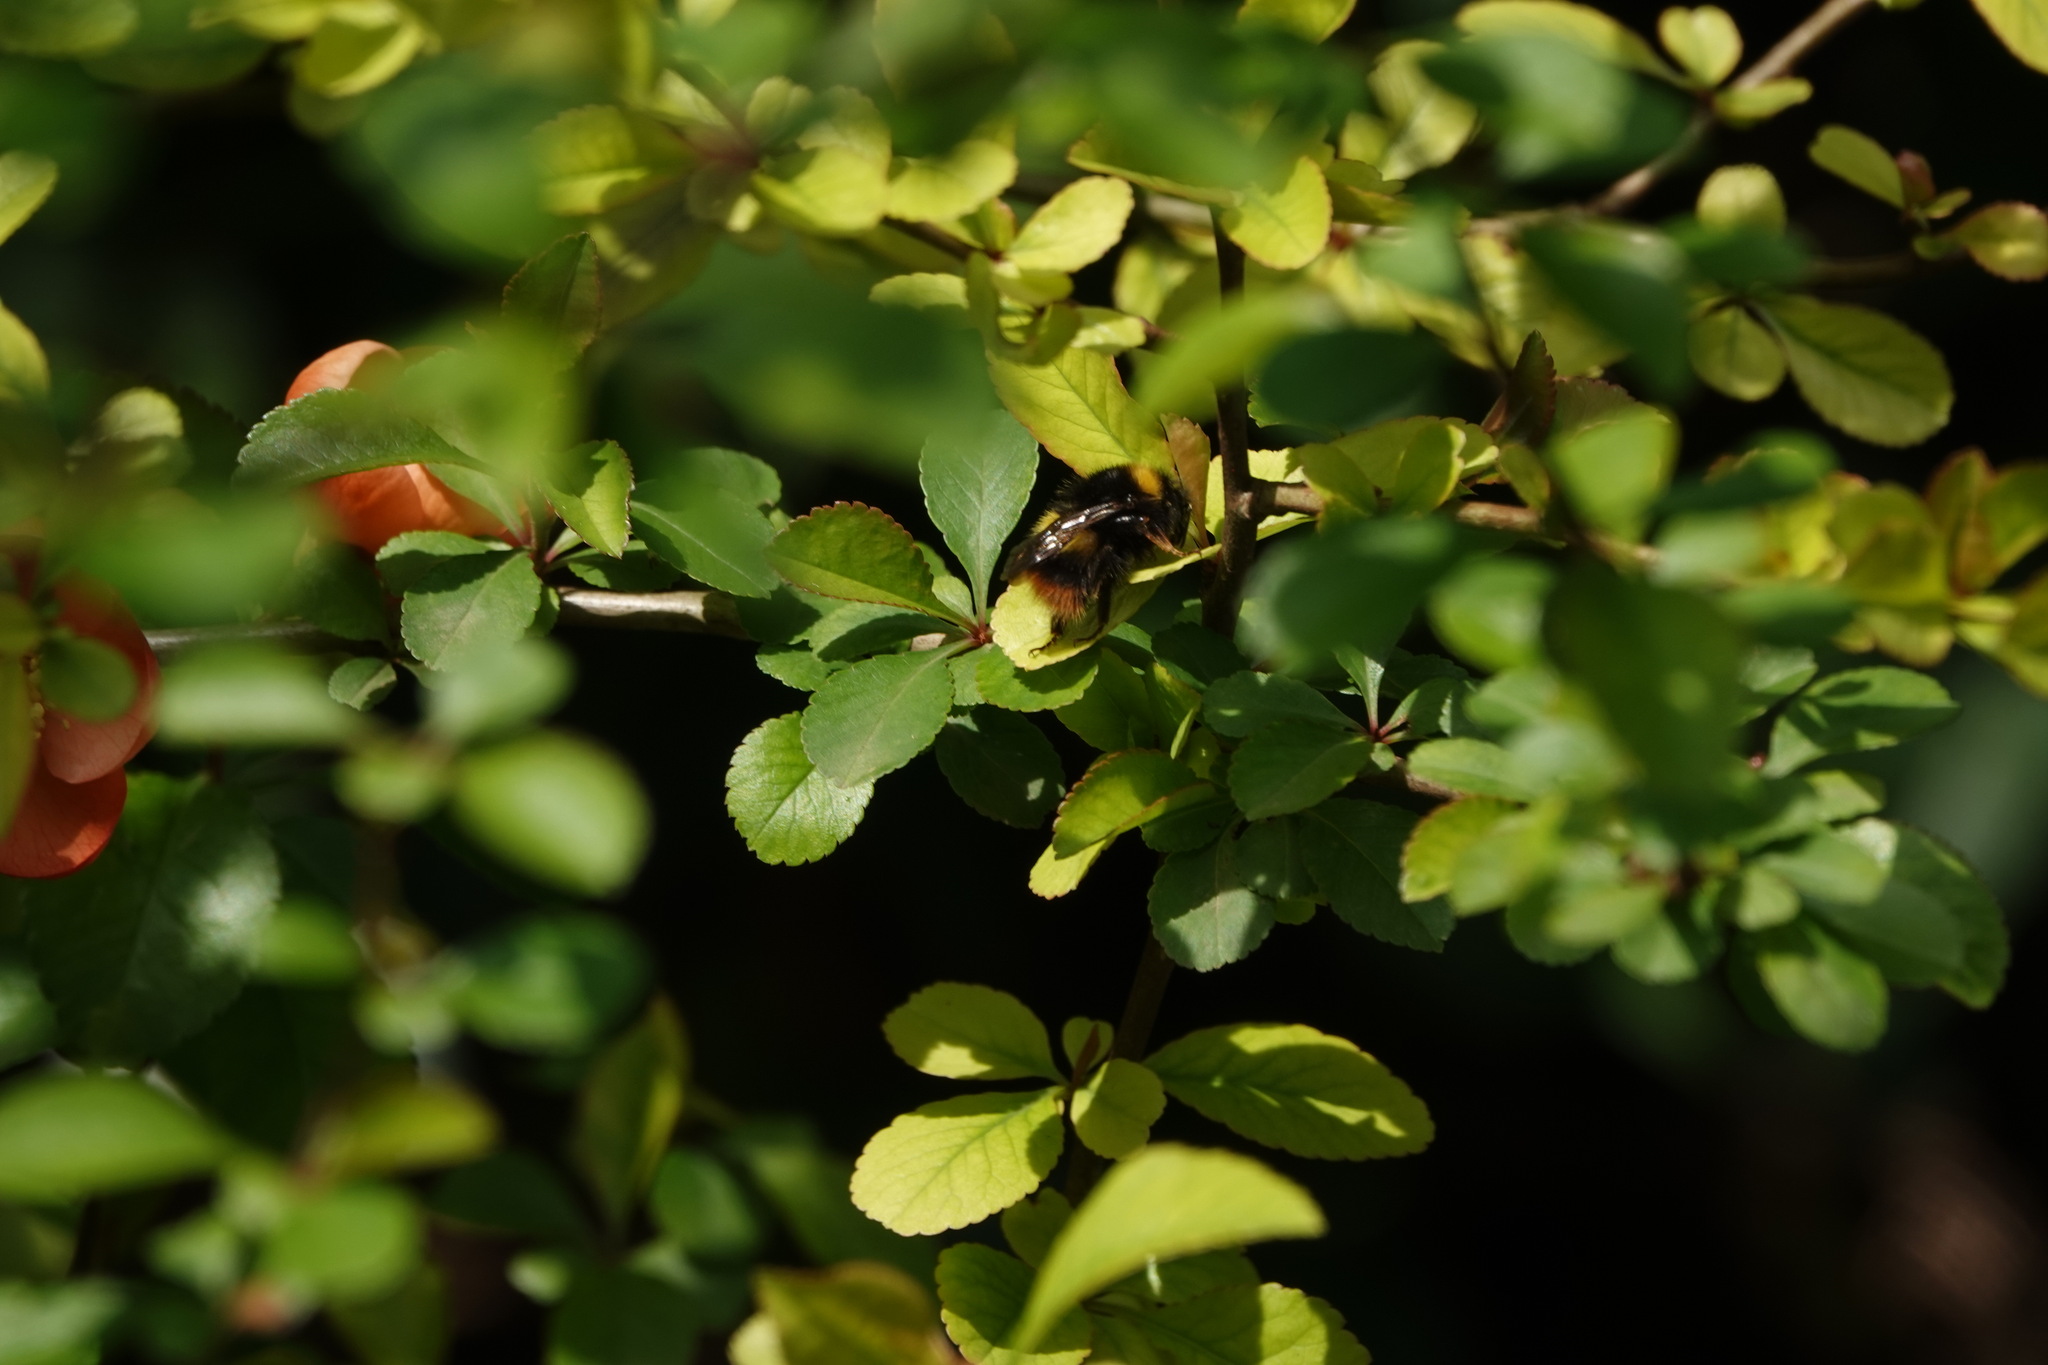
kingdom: Animalia
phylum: Arthropoda
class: Insecta
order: Hymenoptera
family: Apidae
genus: Bombus
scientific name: Bombus pratorum
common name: Early humble-bee
